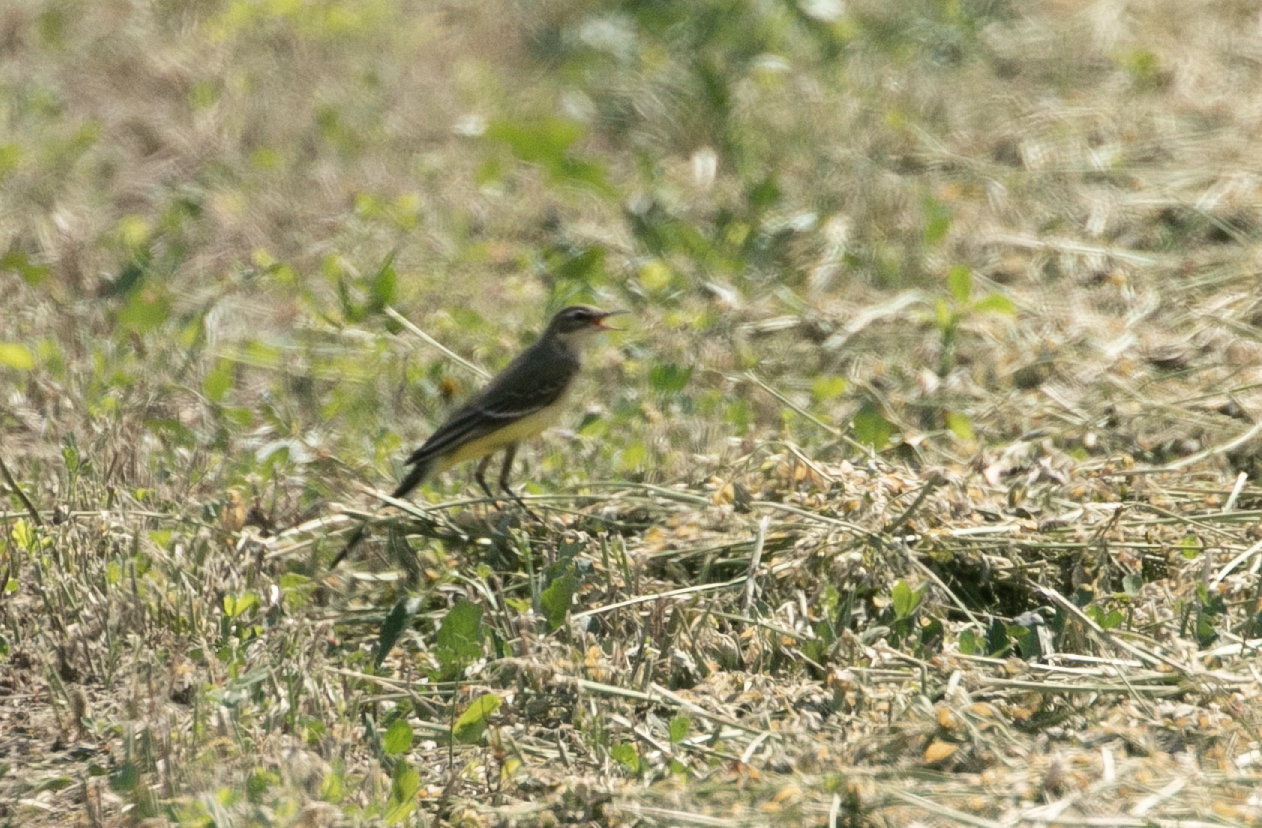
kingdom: Animalia
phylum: Chordata
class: Aves
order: Passeriformes
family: Motacillidae
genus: Motacilla
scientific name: Motacilla flava
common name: Western yellow wagtail
